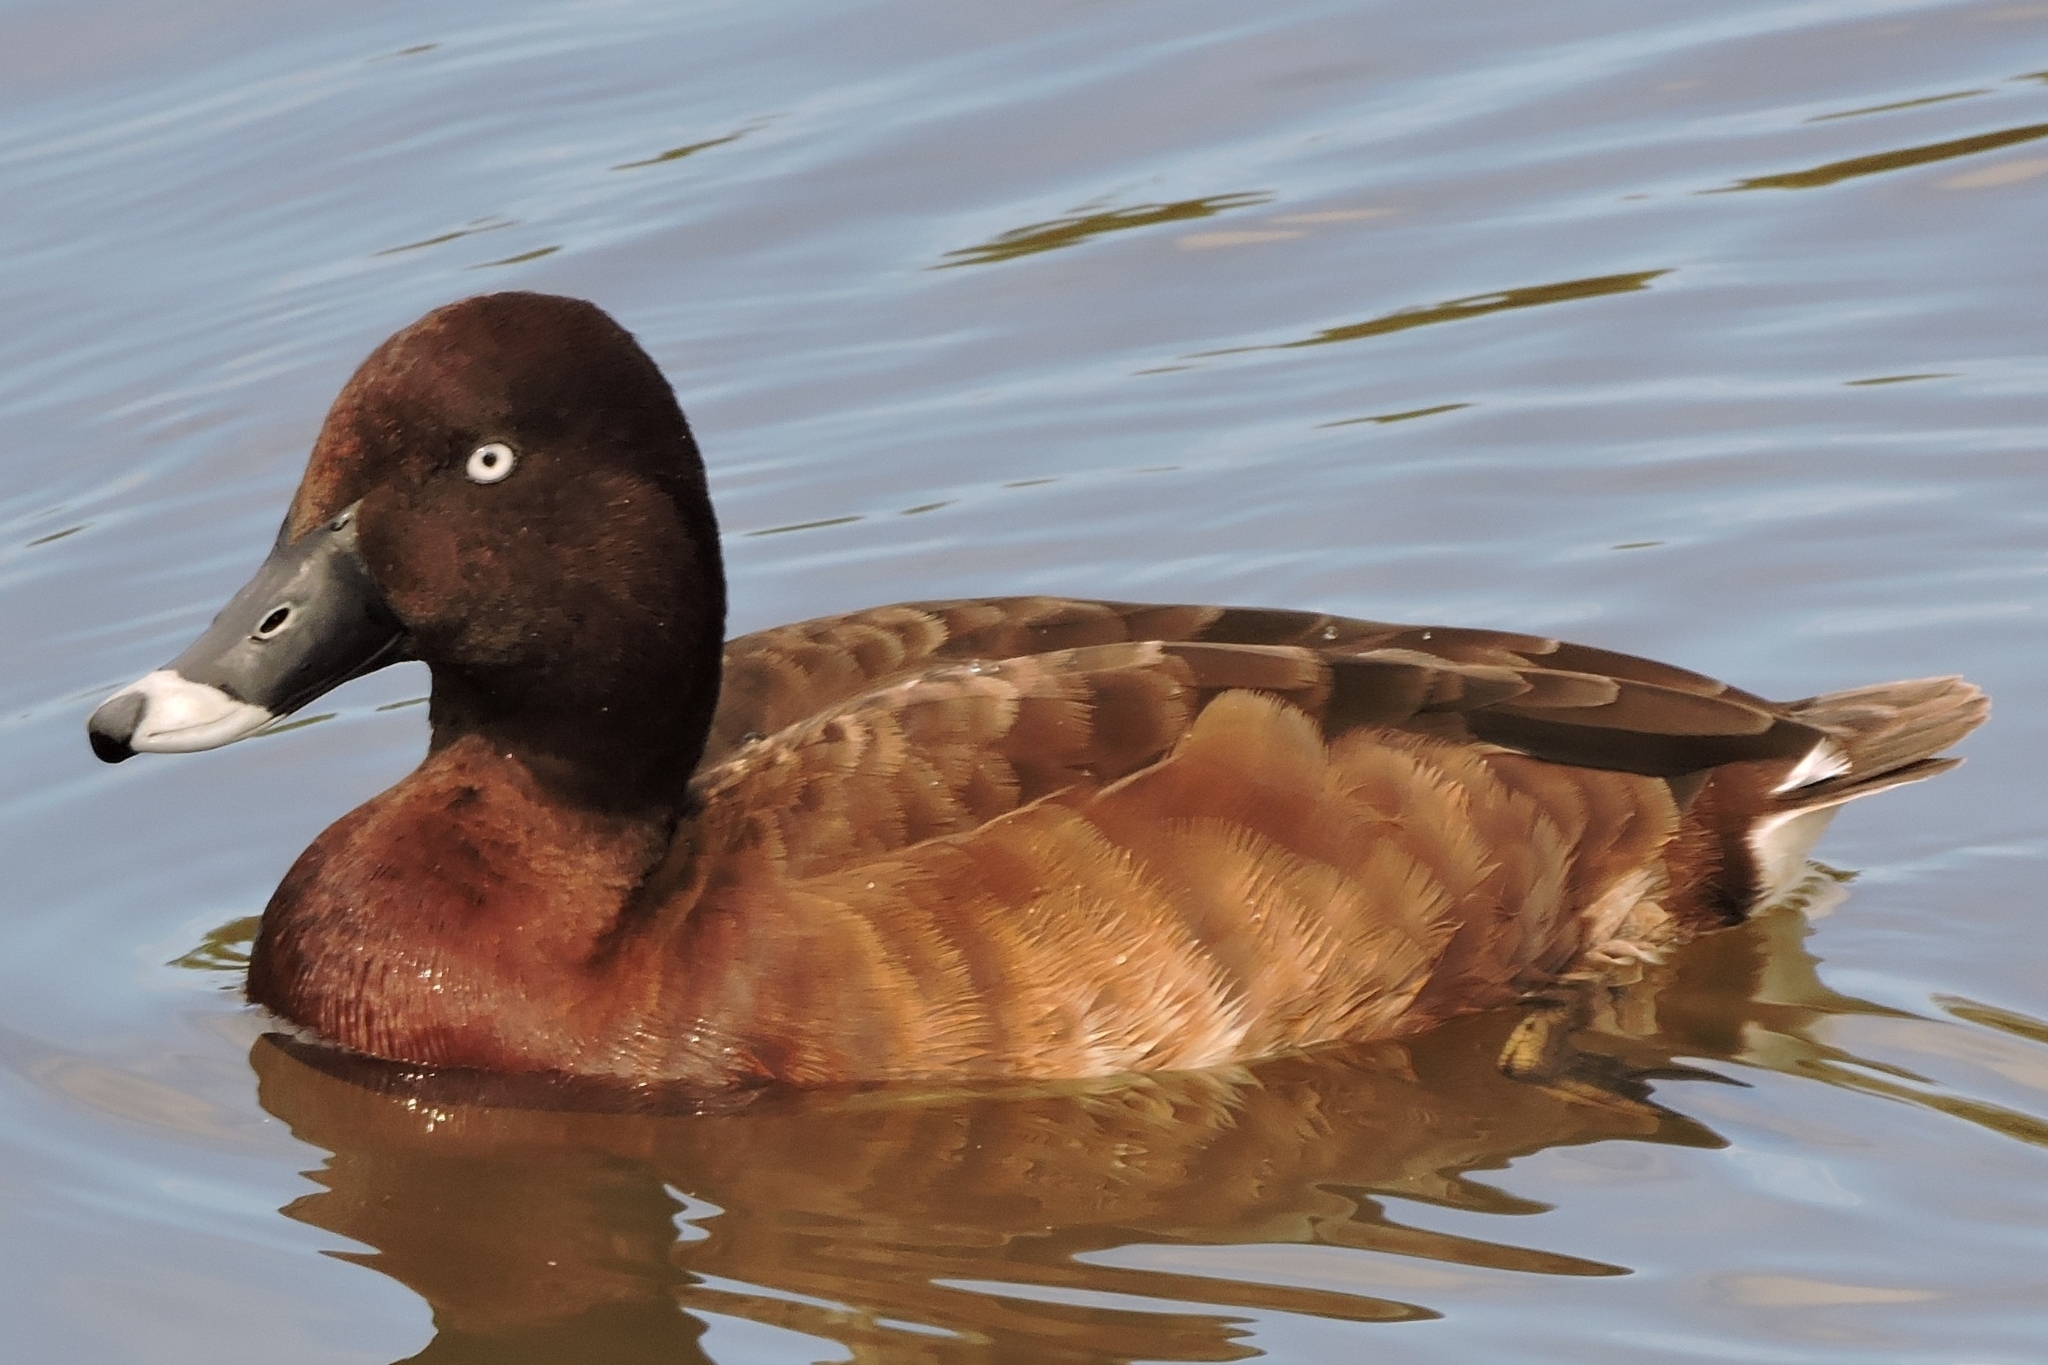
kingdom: Animalia
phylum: Chordata
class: Aves
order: Anseriformes
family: Anatidae
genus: Aythya
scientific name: Aythya australis
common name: Hardhead
